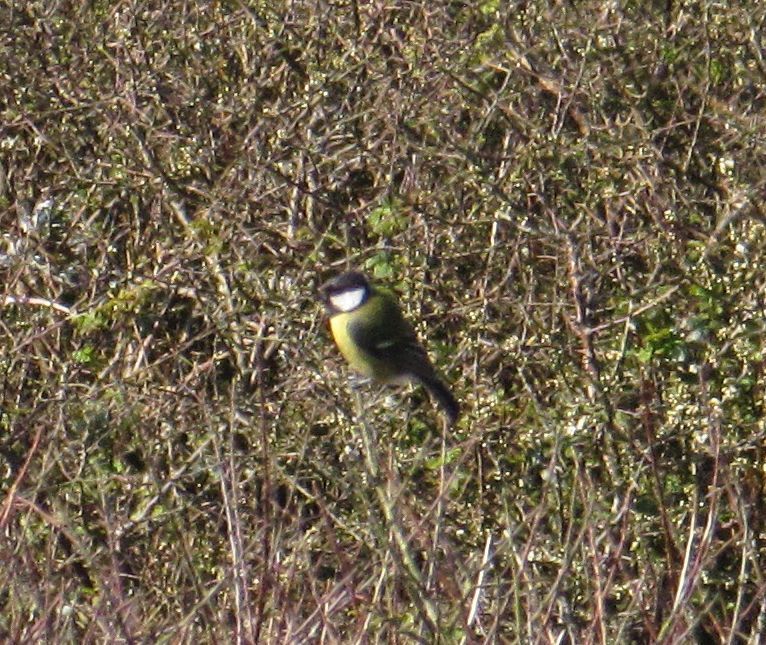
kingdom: Animalia
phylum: Chordata
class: Aves
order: Passeriformes
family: Paridae
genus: Parus
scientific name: Parus major
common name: Great tit
